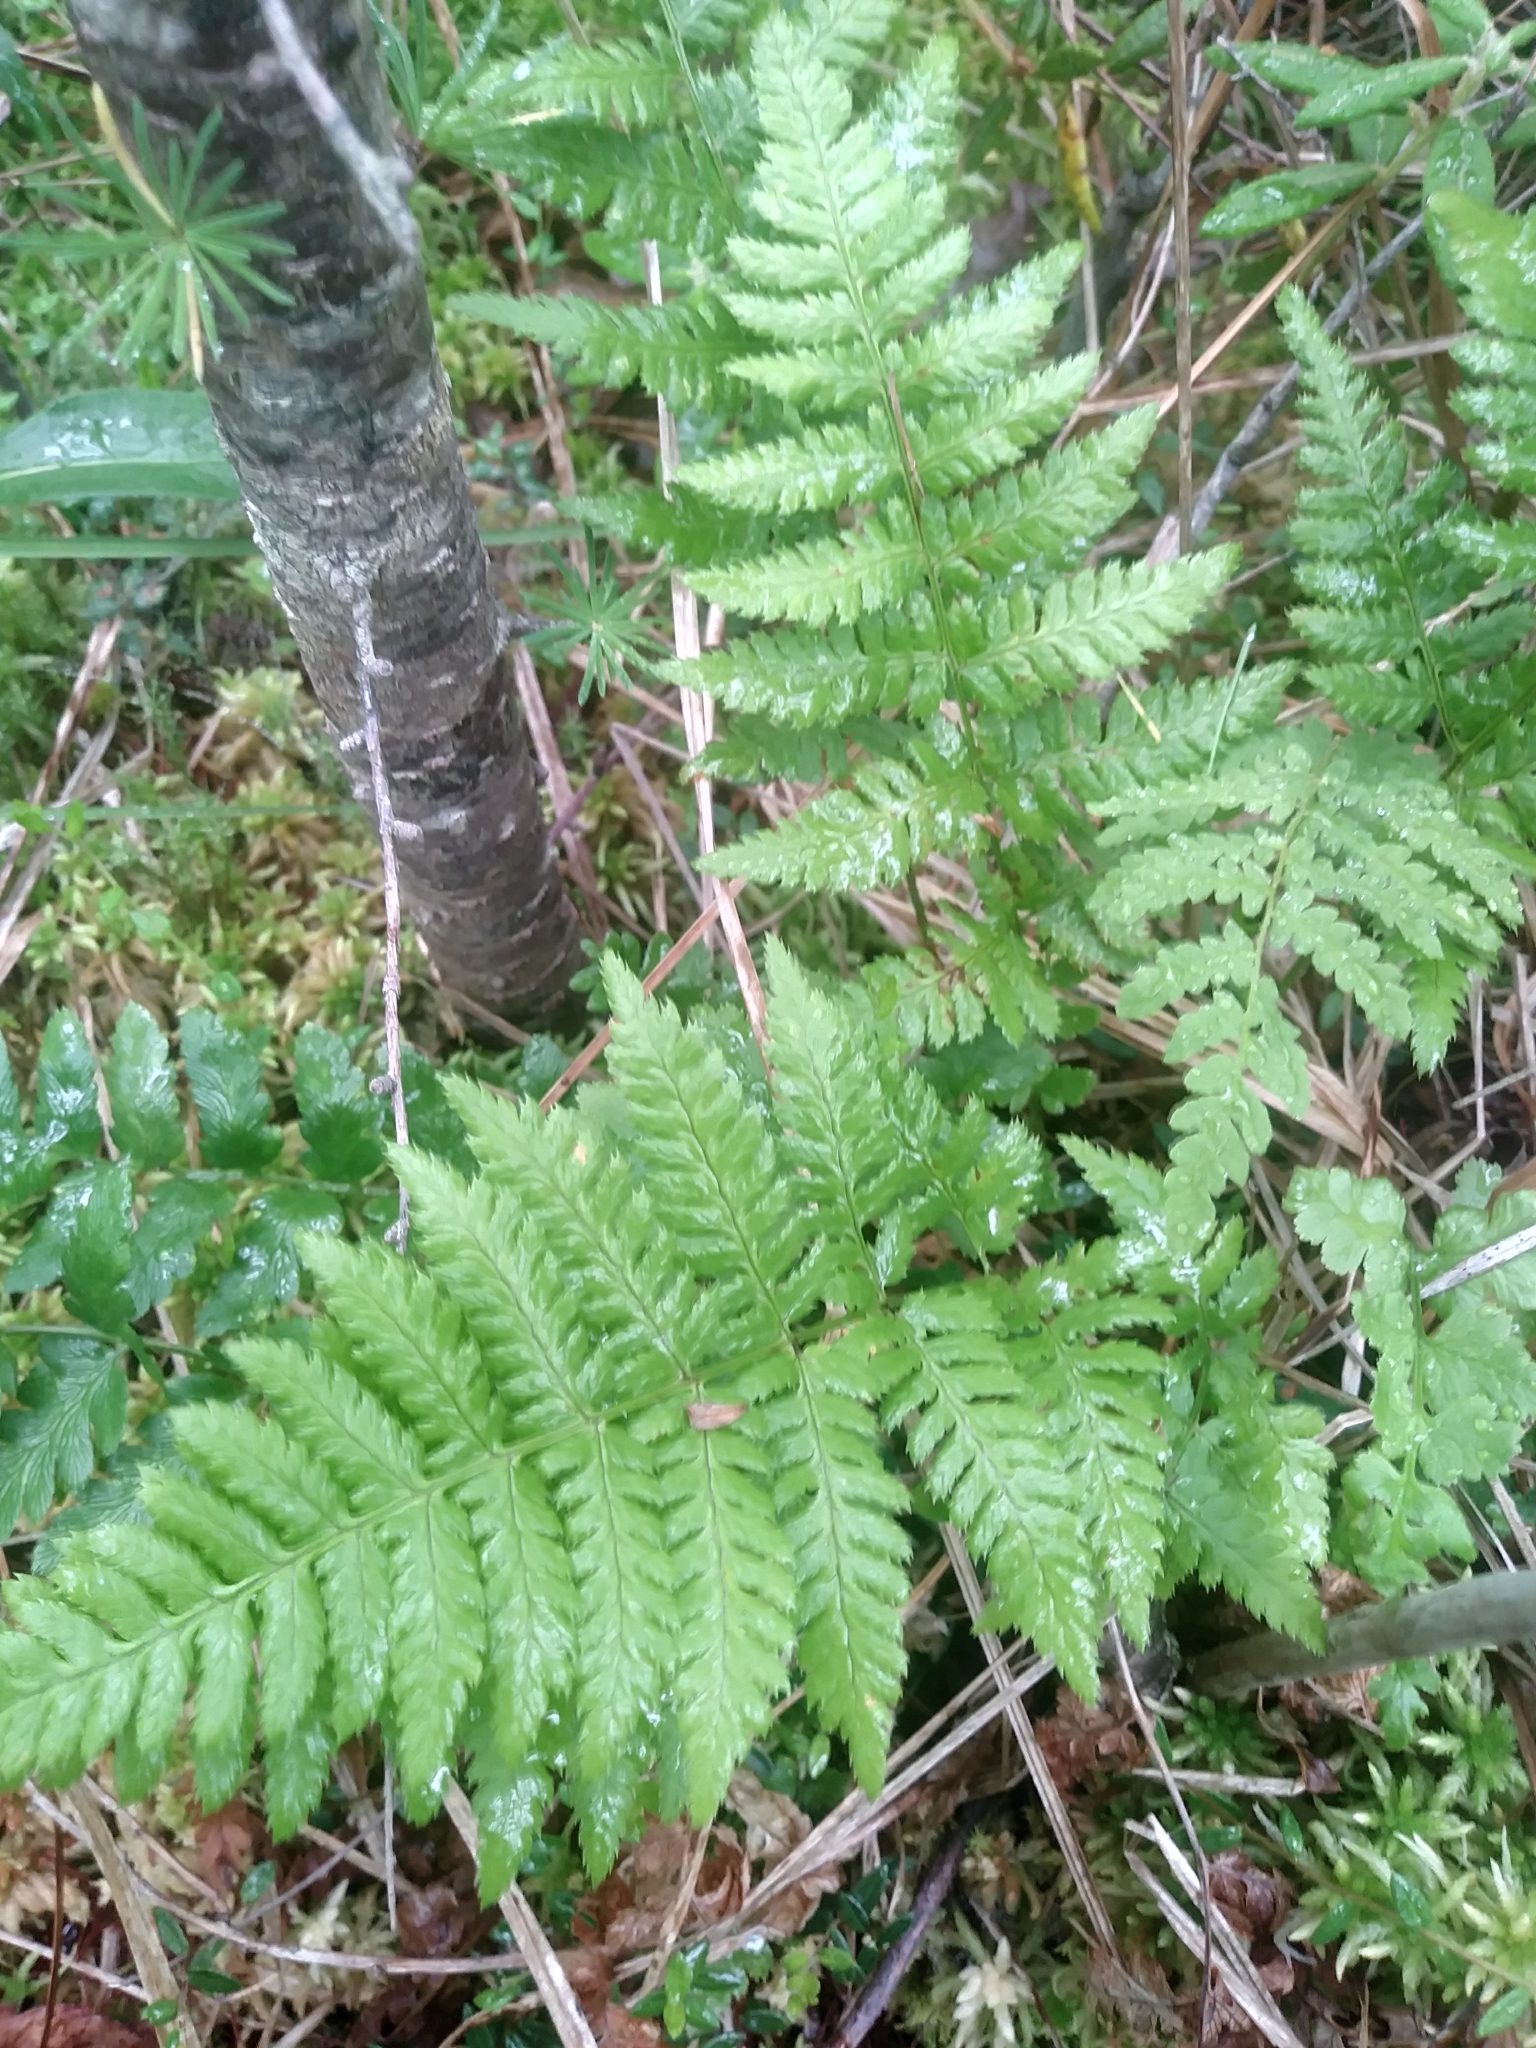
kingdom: Plantae
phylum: Tracheophyta
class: Polypodiopsida
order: Polypodiales
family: Dryopteridaceae
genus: Dryopteris
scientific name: Dryopteris carthusiana
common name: Narrow buckler-fern
